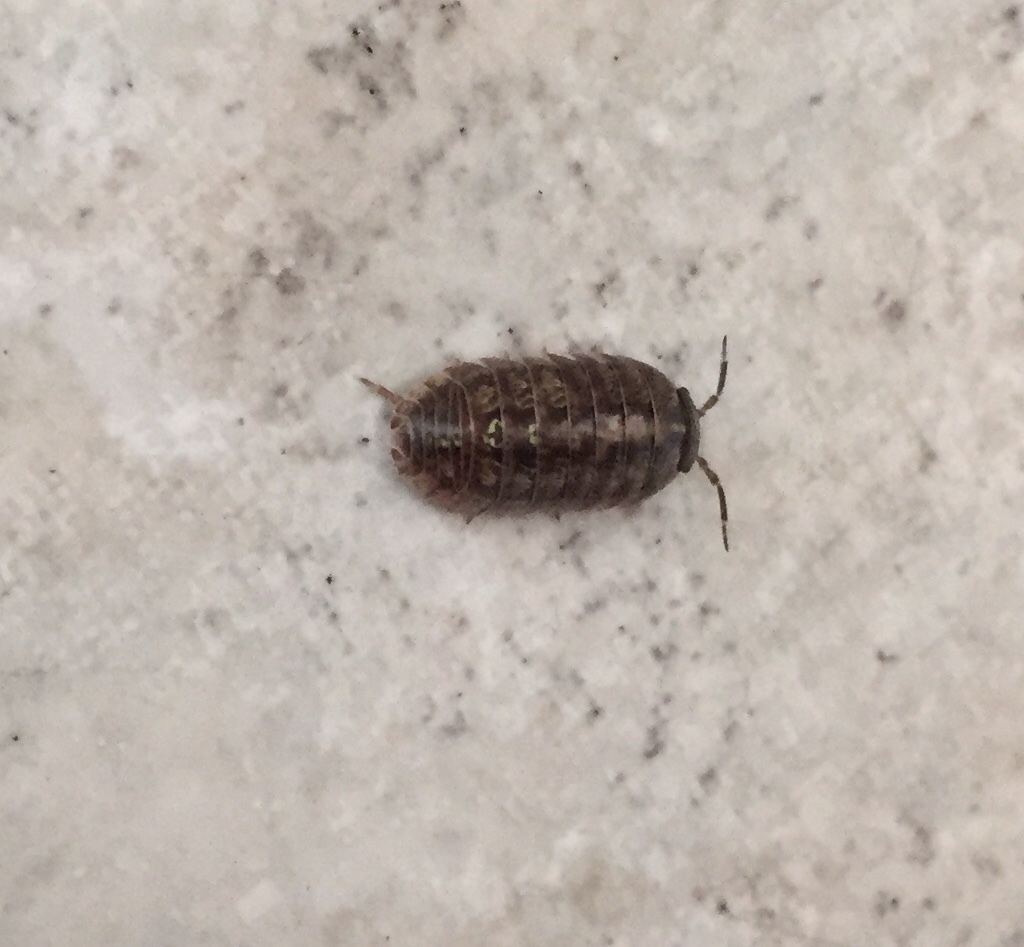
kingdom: Animalia
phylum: Arthropoda
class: Malacostraca
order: Isopoda
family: Armadillidiidae
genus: Armadillidium
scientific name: Armadillidium vulgare
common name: Common pill woodlouse
